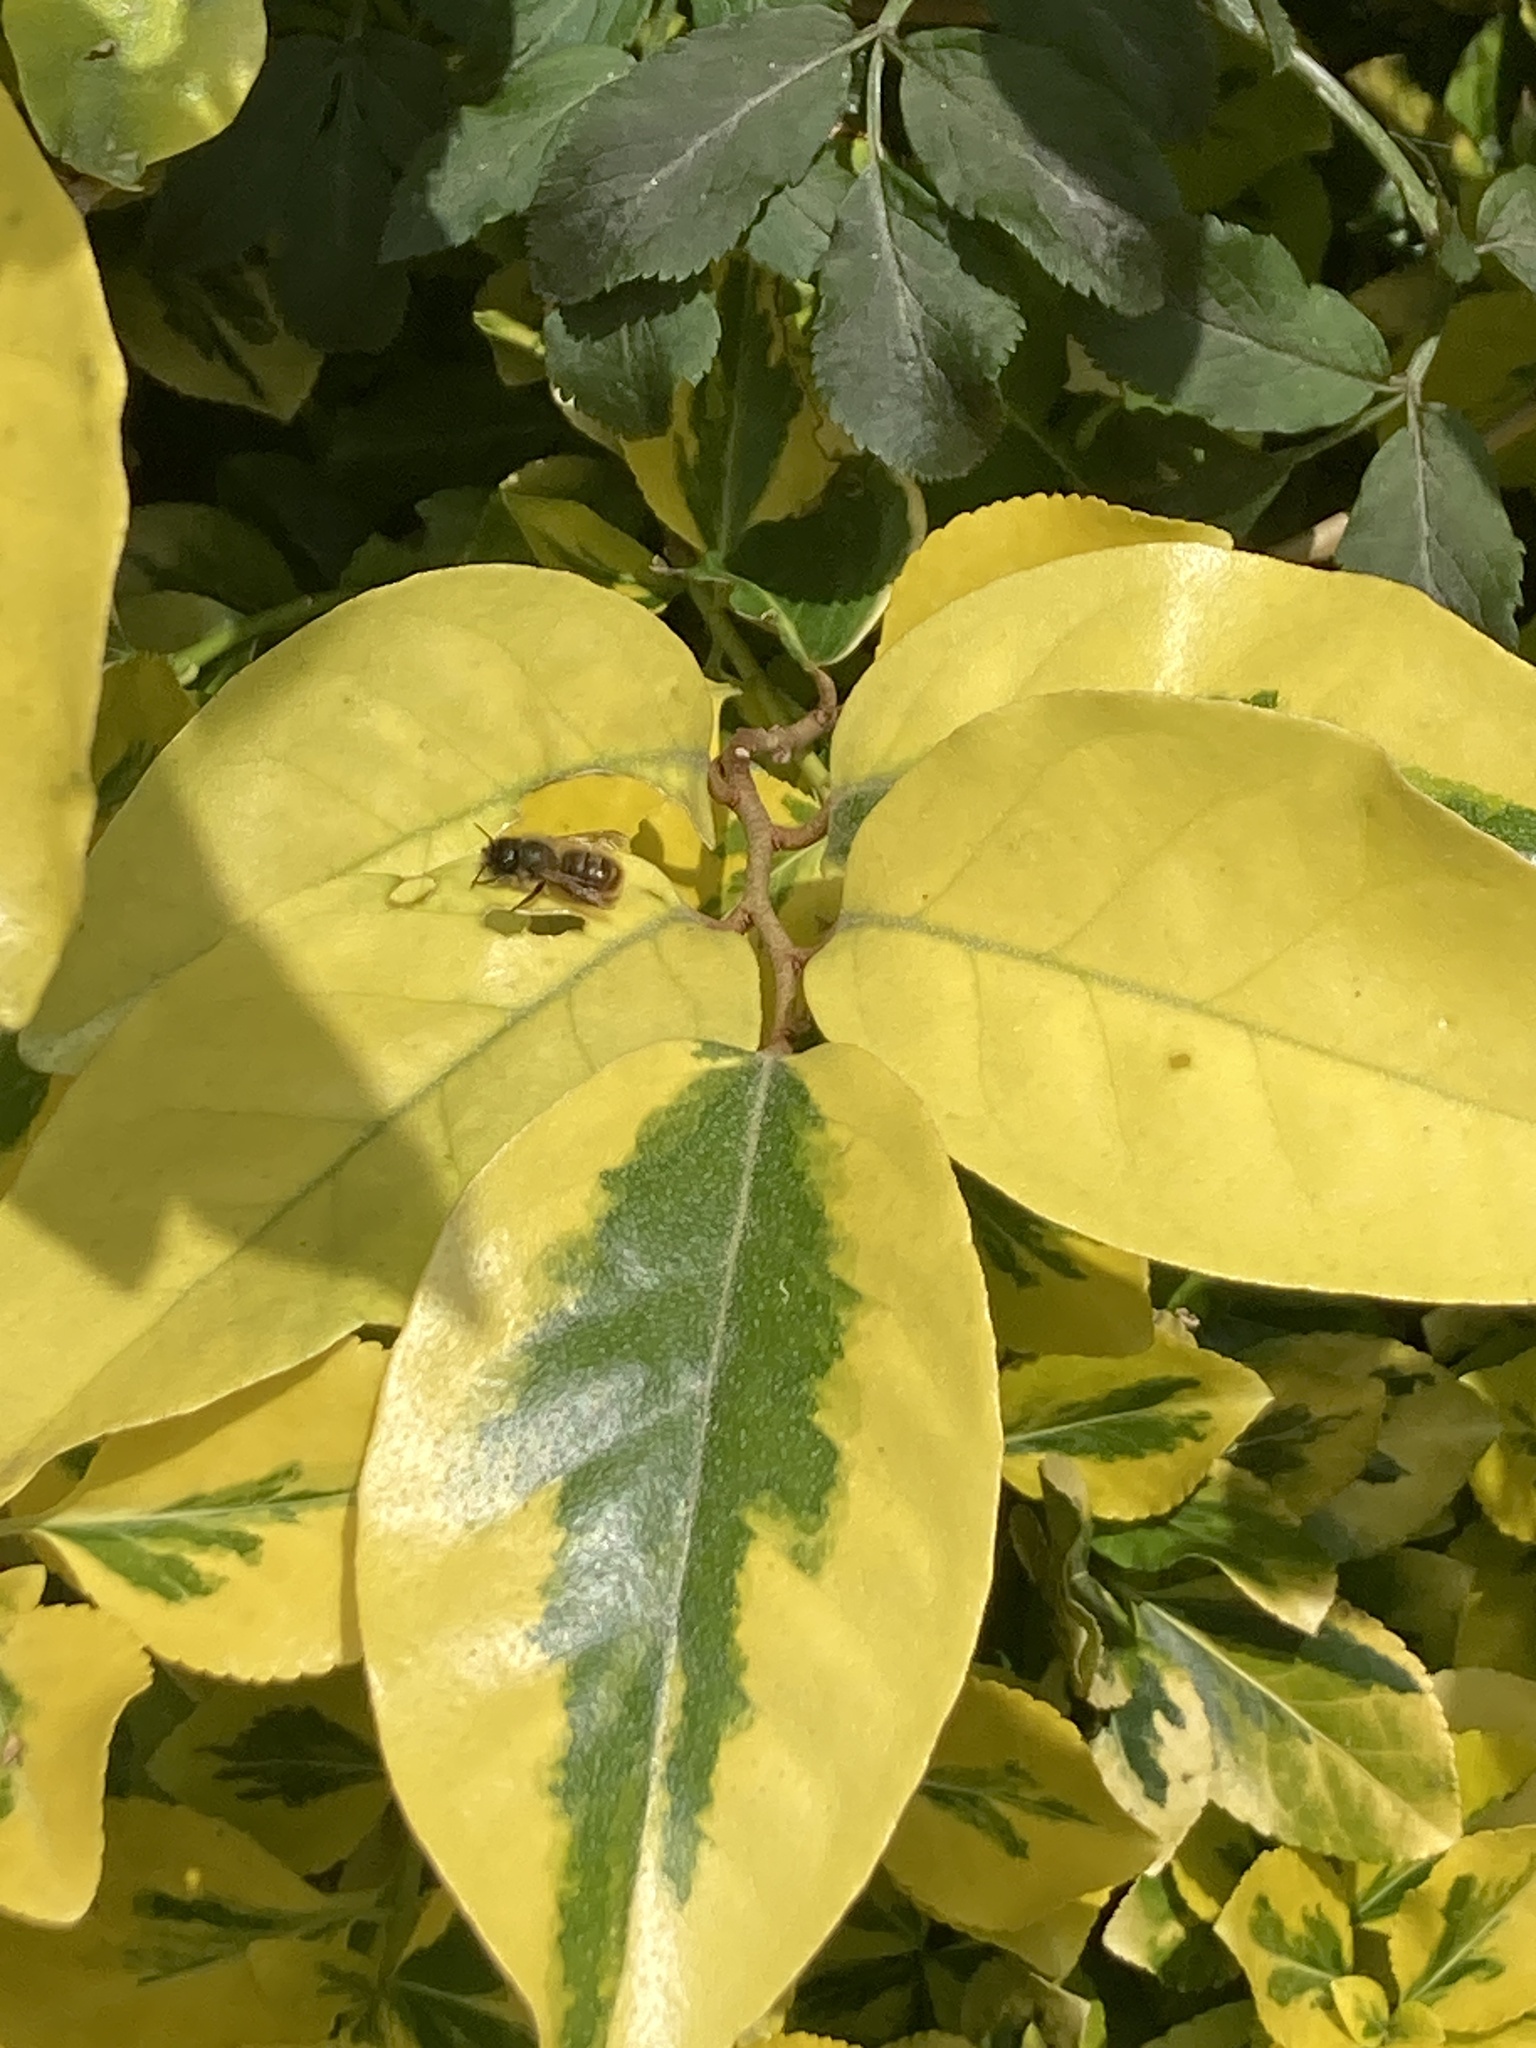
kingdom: Animalia
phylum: Arthropoda
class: Insecta
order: Hymenoptera
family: Megachilidae
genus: Osmia
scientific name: Osmia bicornis
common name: Red mason bee
